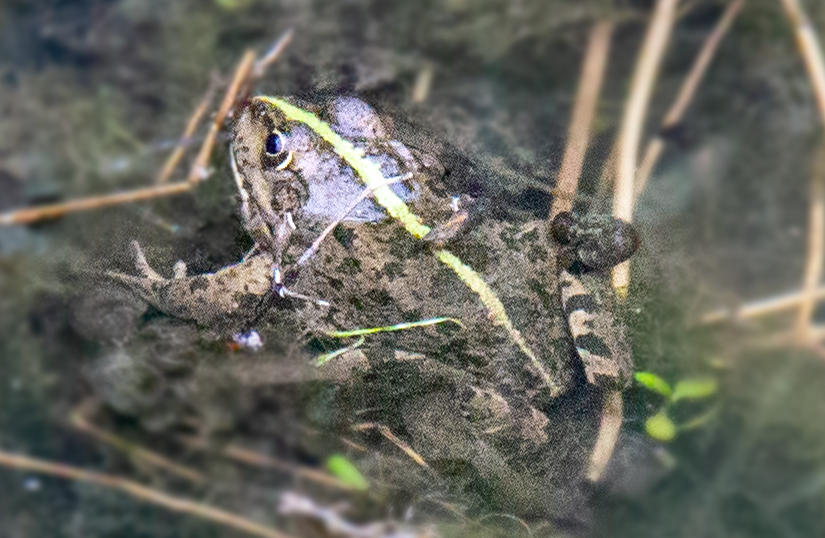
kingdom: Animalia
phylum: Chordata
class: Amphibia
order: Anura
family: Ranidae
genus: Pelophylax
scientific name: Pelophylax ridibundus
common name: Marsh frog
